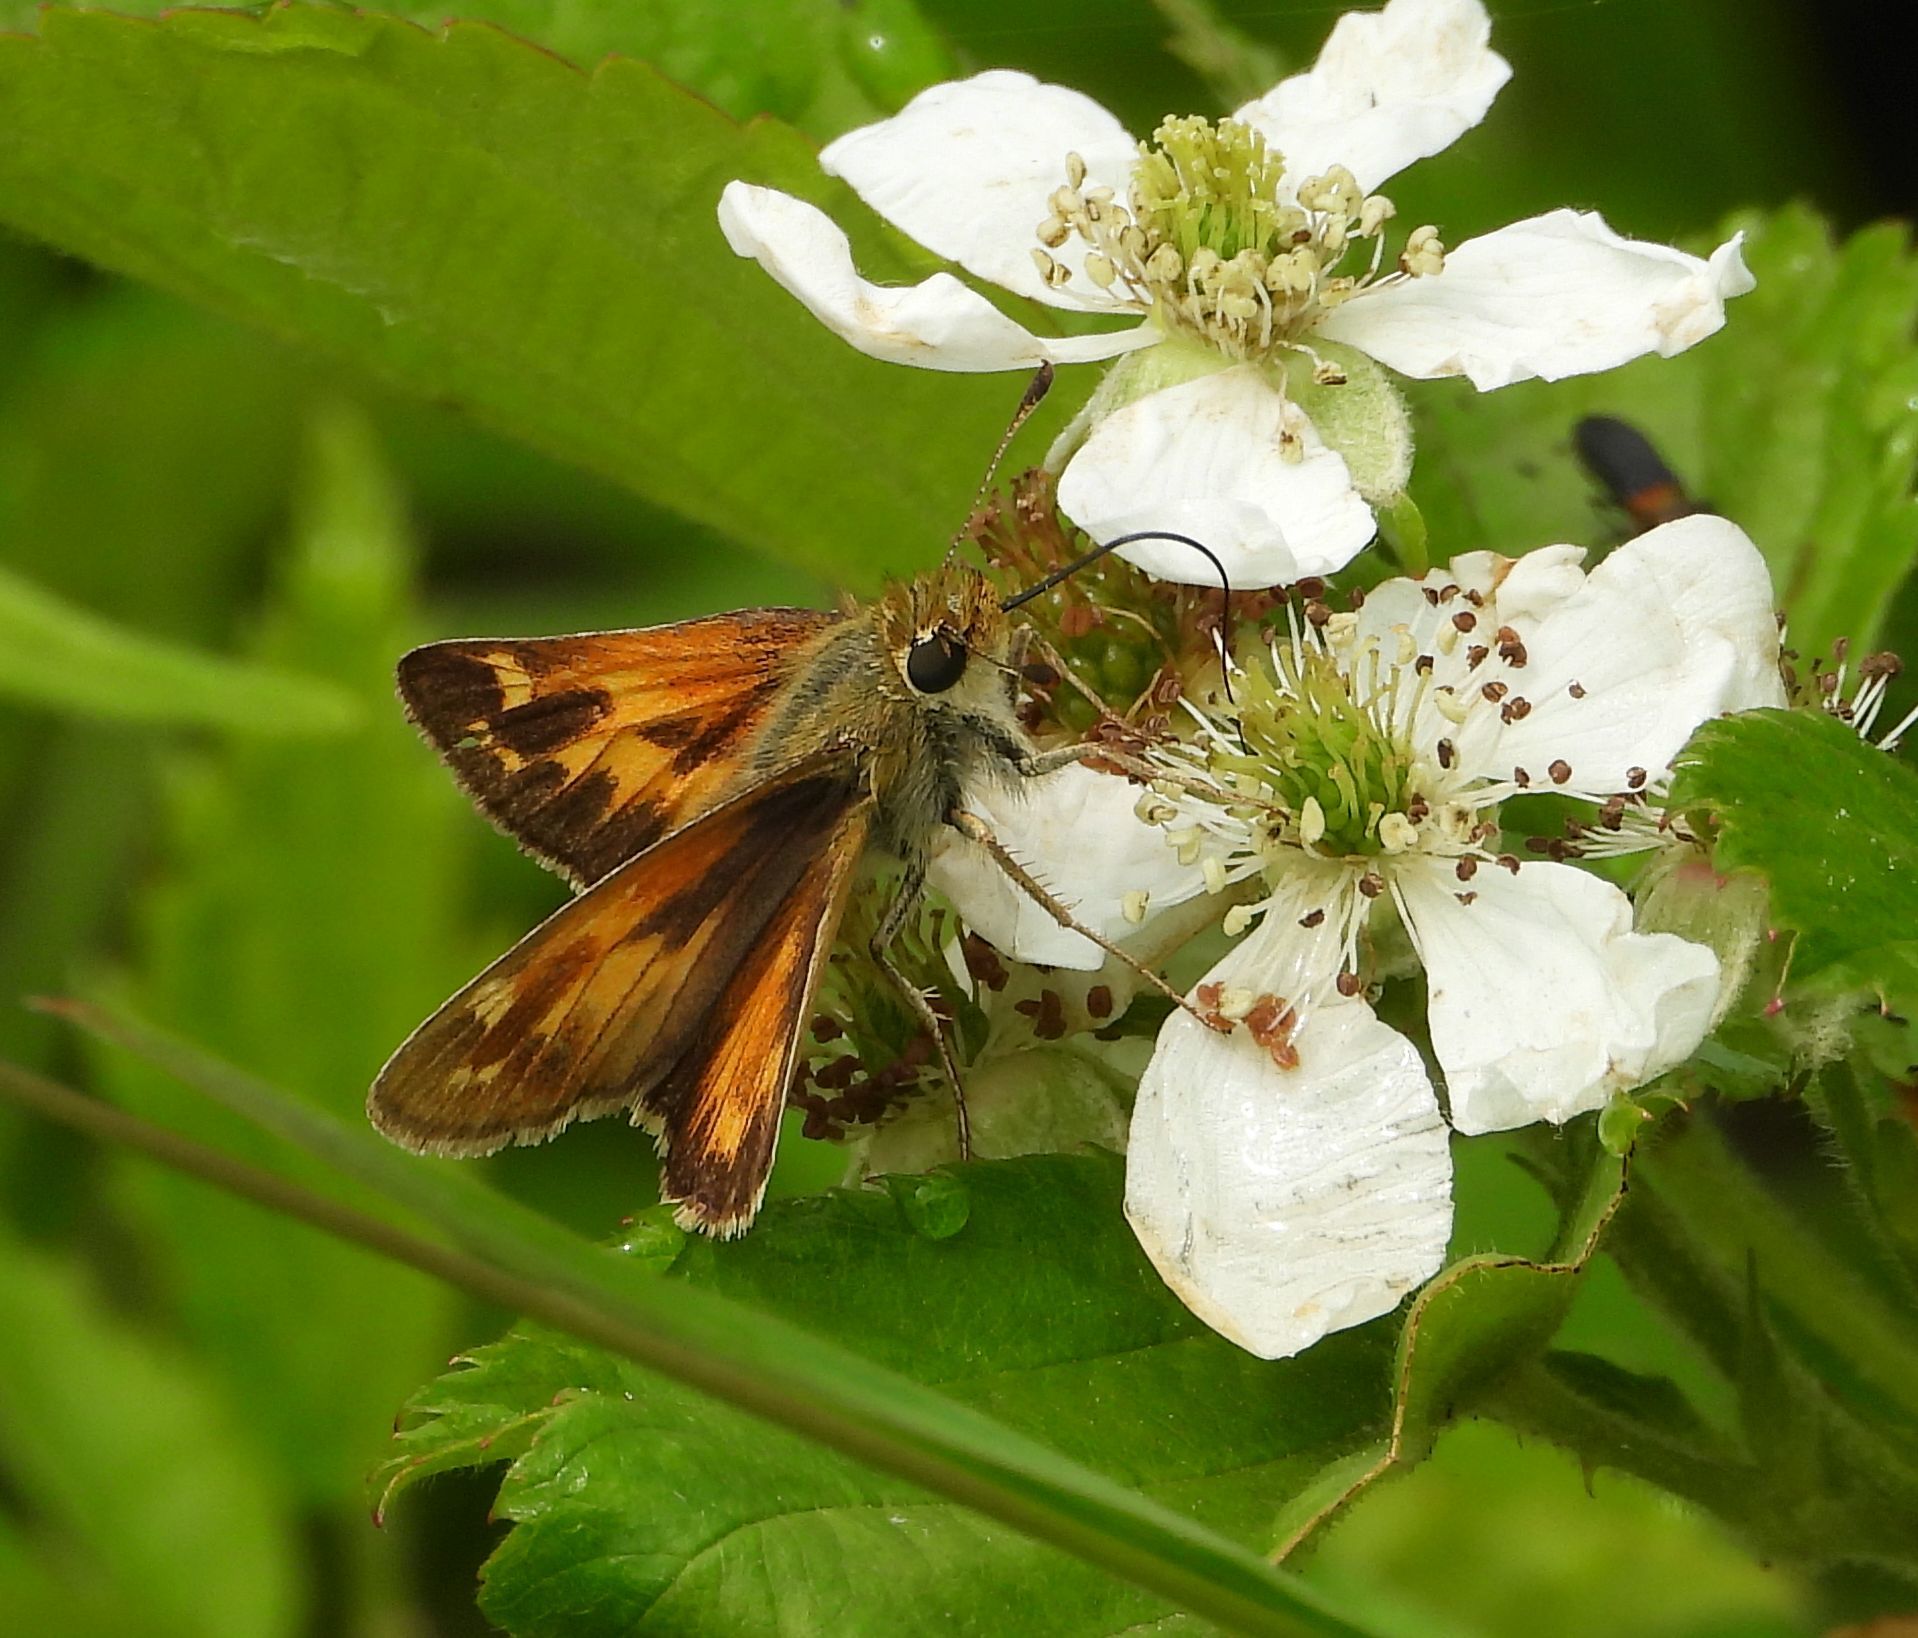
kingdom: Animalia
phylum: Arthropoda
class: Insecta
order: Lepidoptera
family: Hesperiidae
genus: Hesperia
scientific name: Hesperia sassacus
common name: Indian skipper
